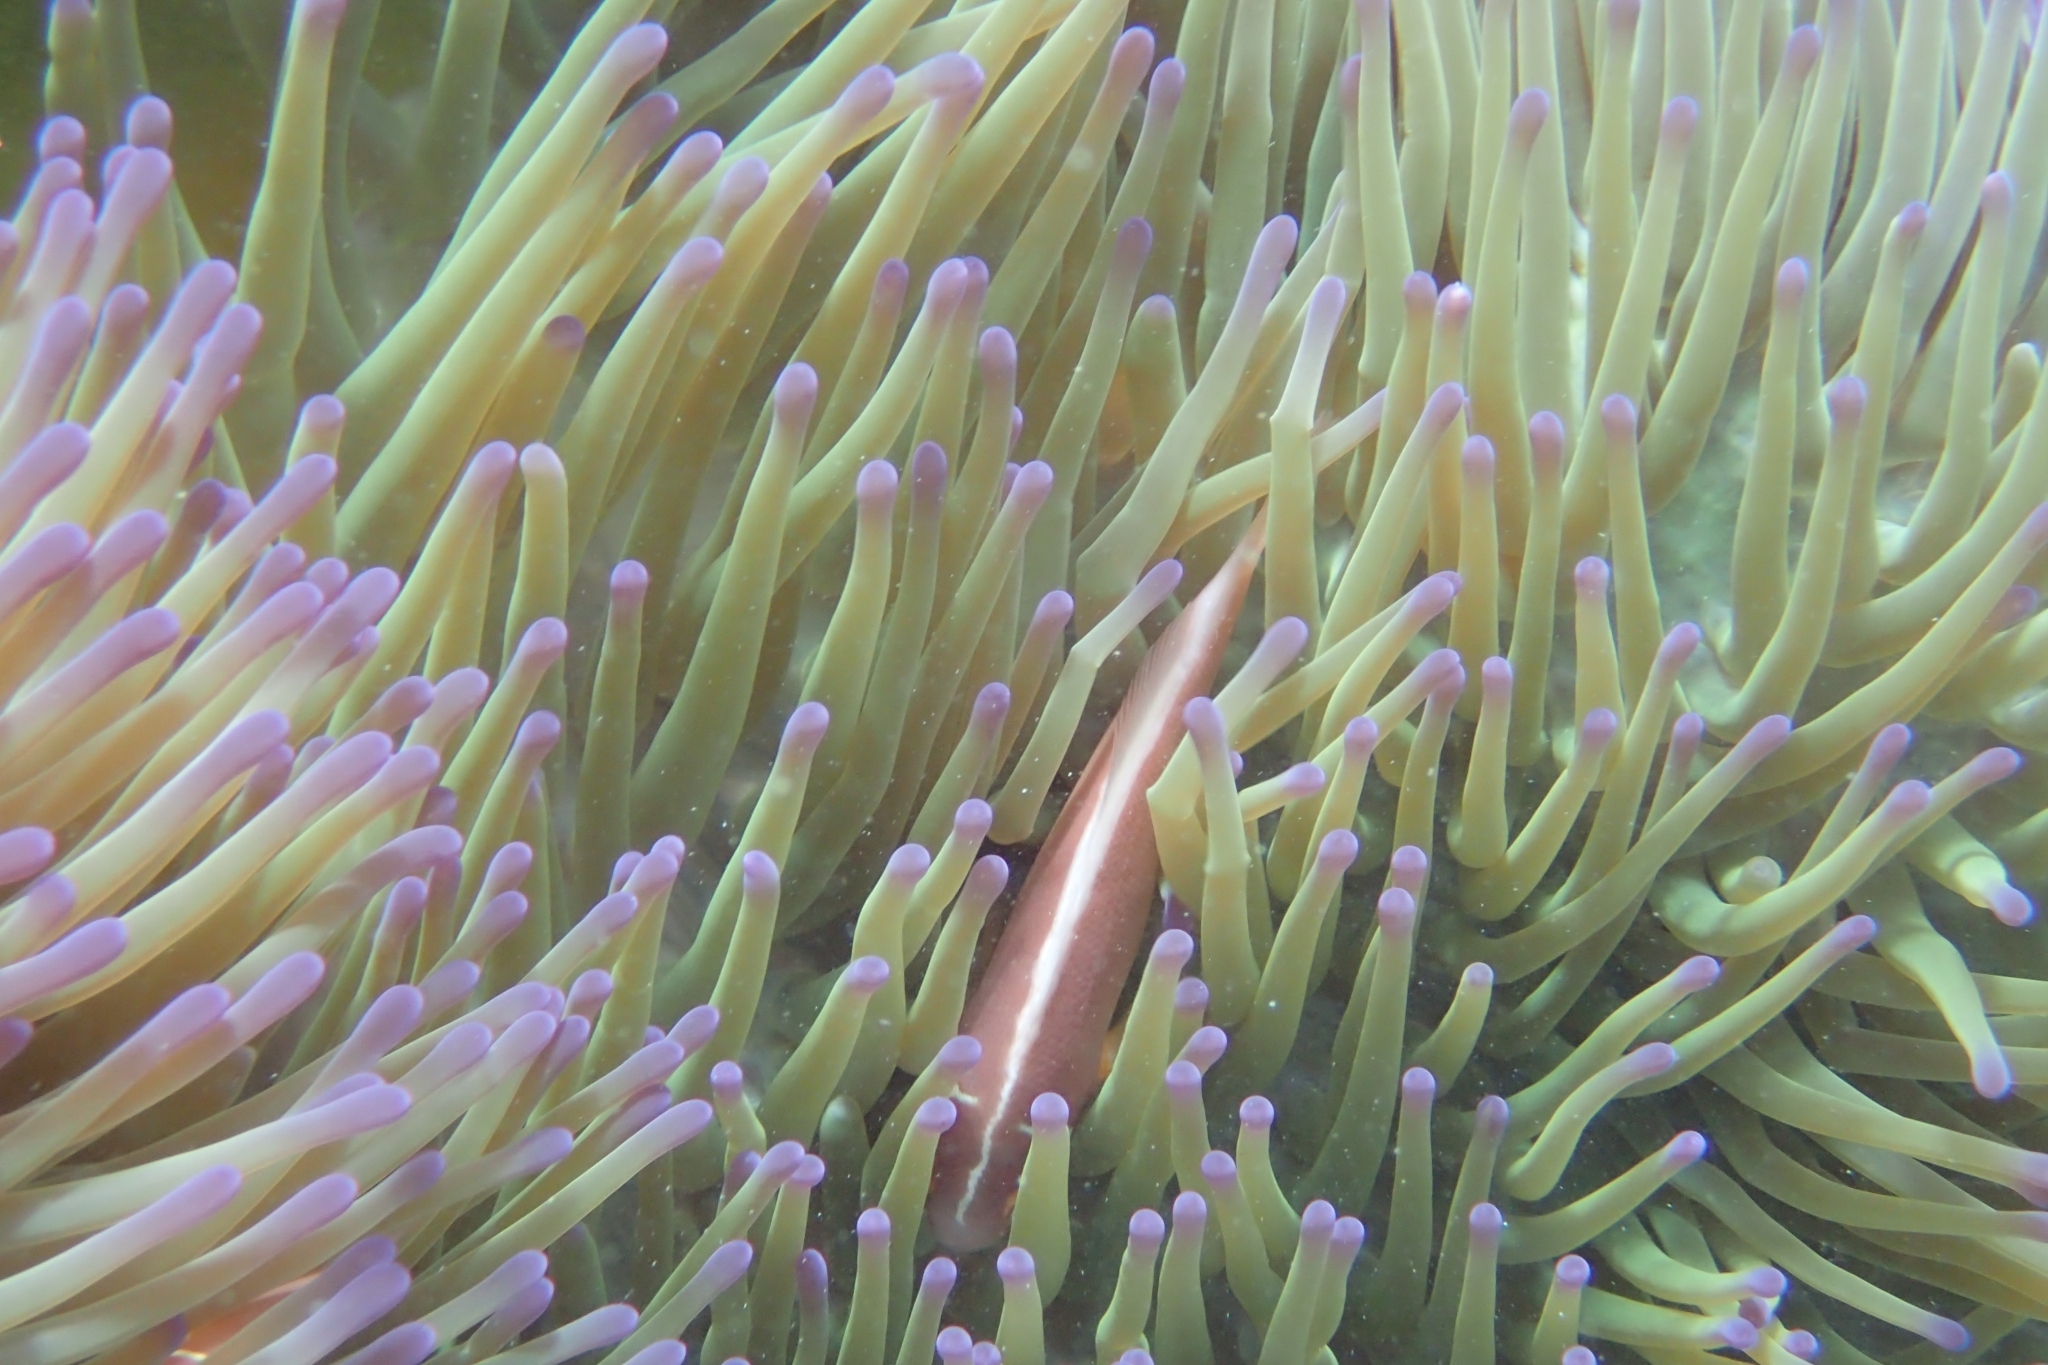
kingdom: Animalia
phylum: Cnidaria
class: Anthozoa
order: Actiniaria
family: Stichodactylidae
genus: Radianthus
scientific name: Radianthus magnifica
